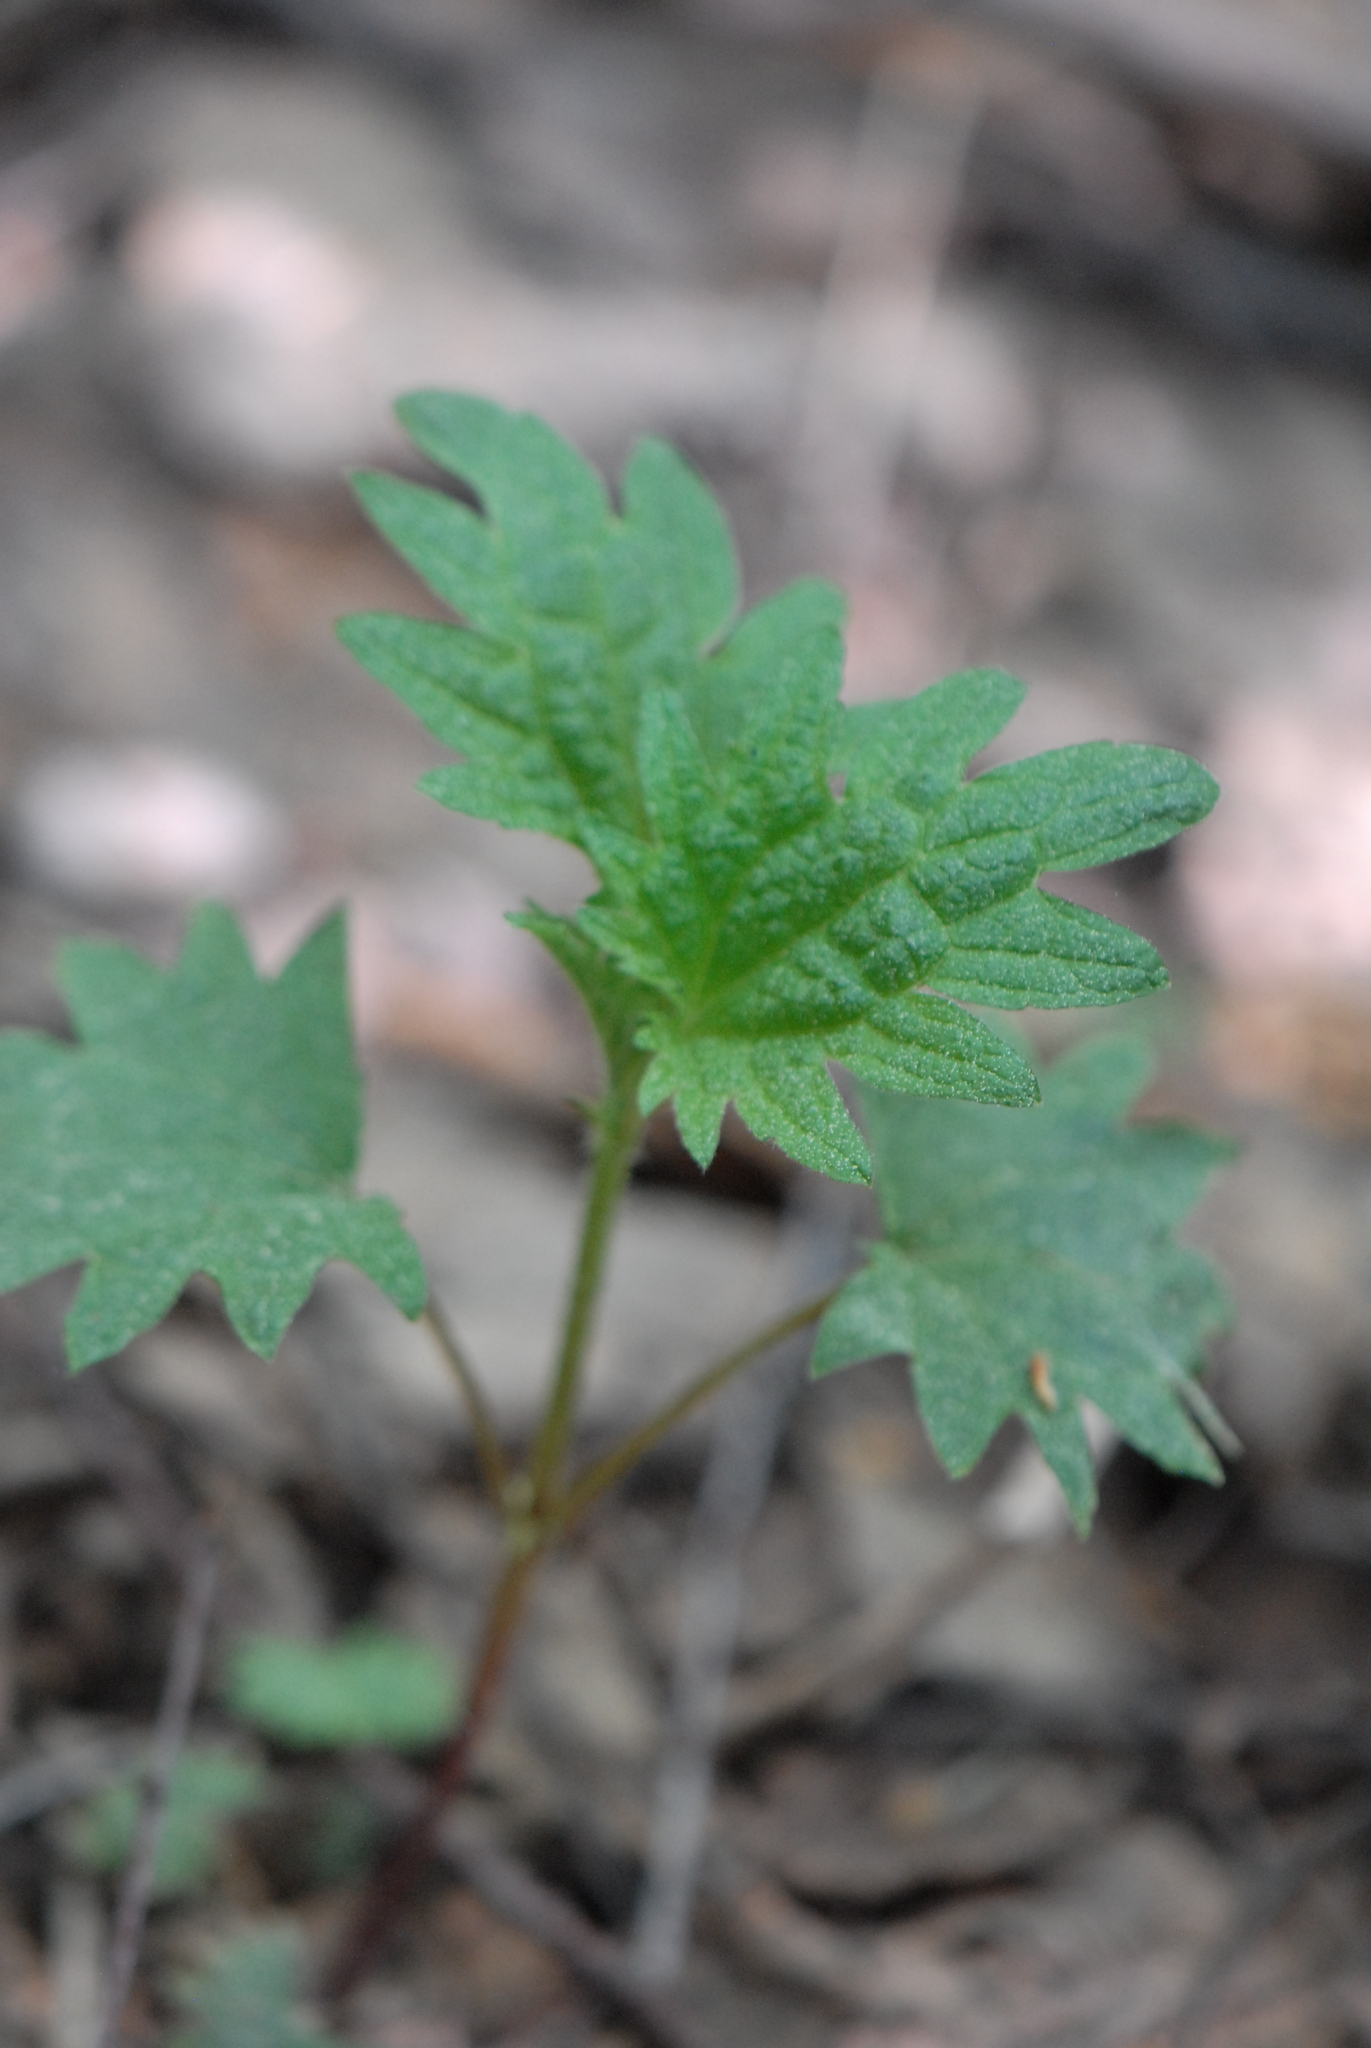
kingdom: Plantae
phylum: Tracheophyta
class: Magnoliopsida
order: Rosales
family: Urticaceae
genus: Urtica
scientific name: Urtica dioica
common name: Common nettle
